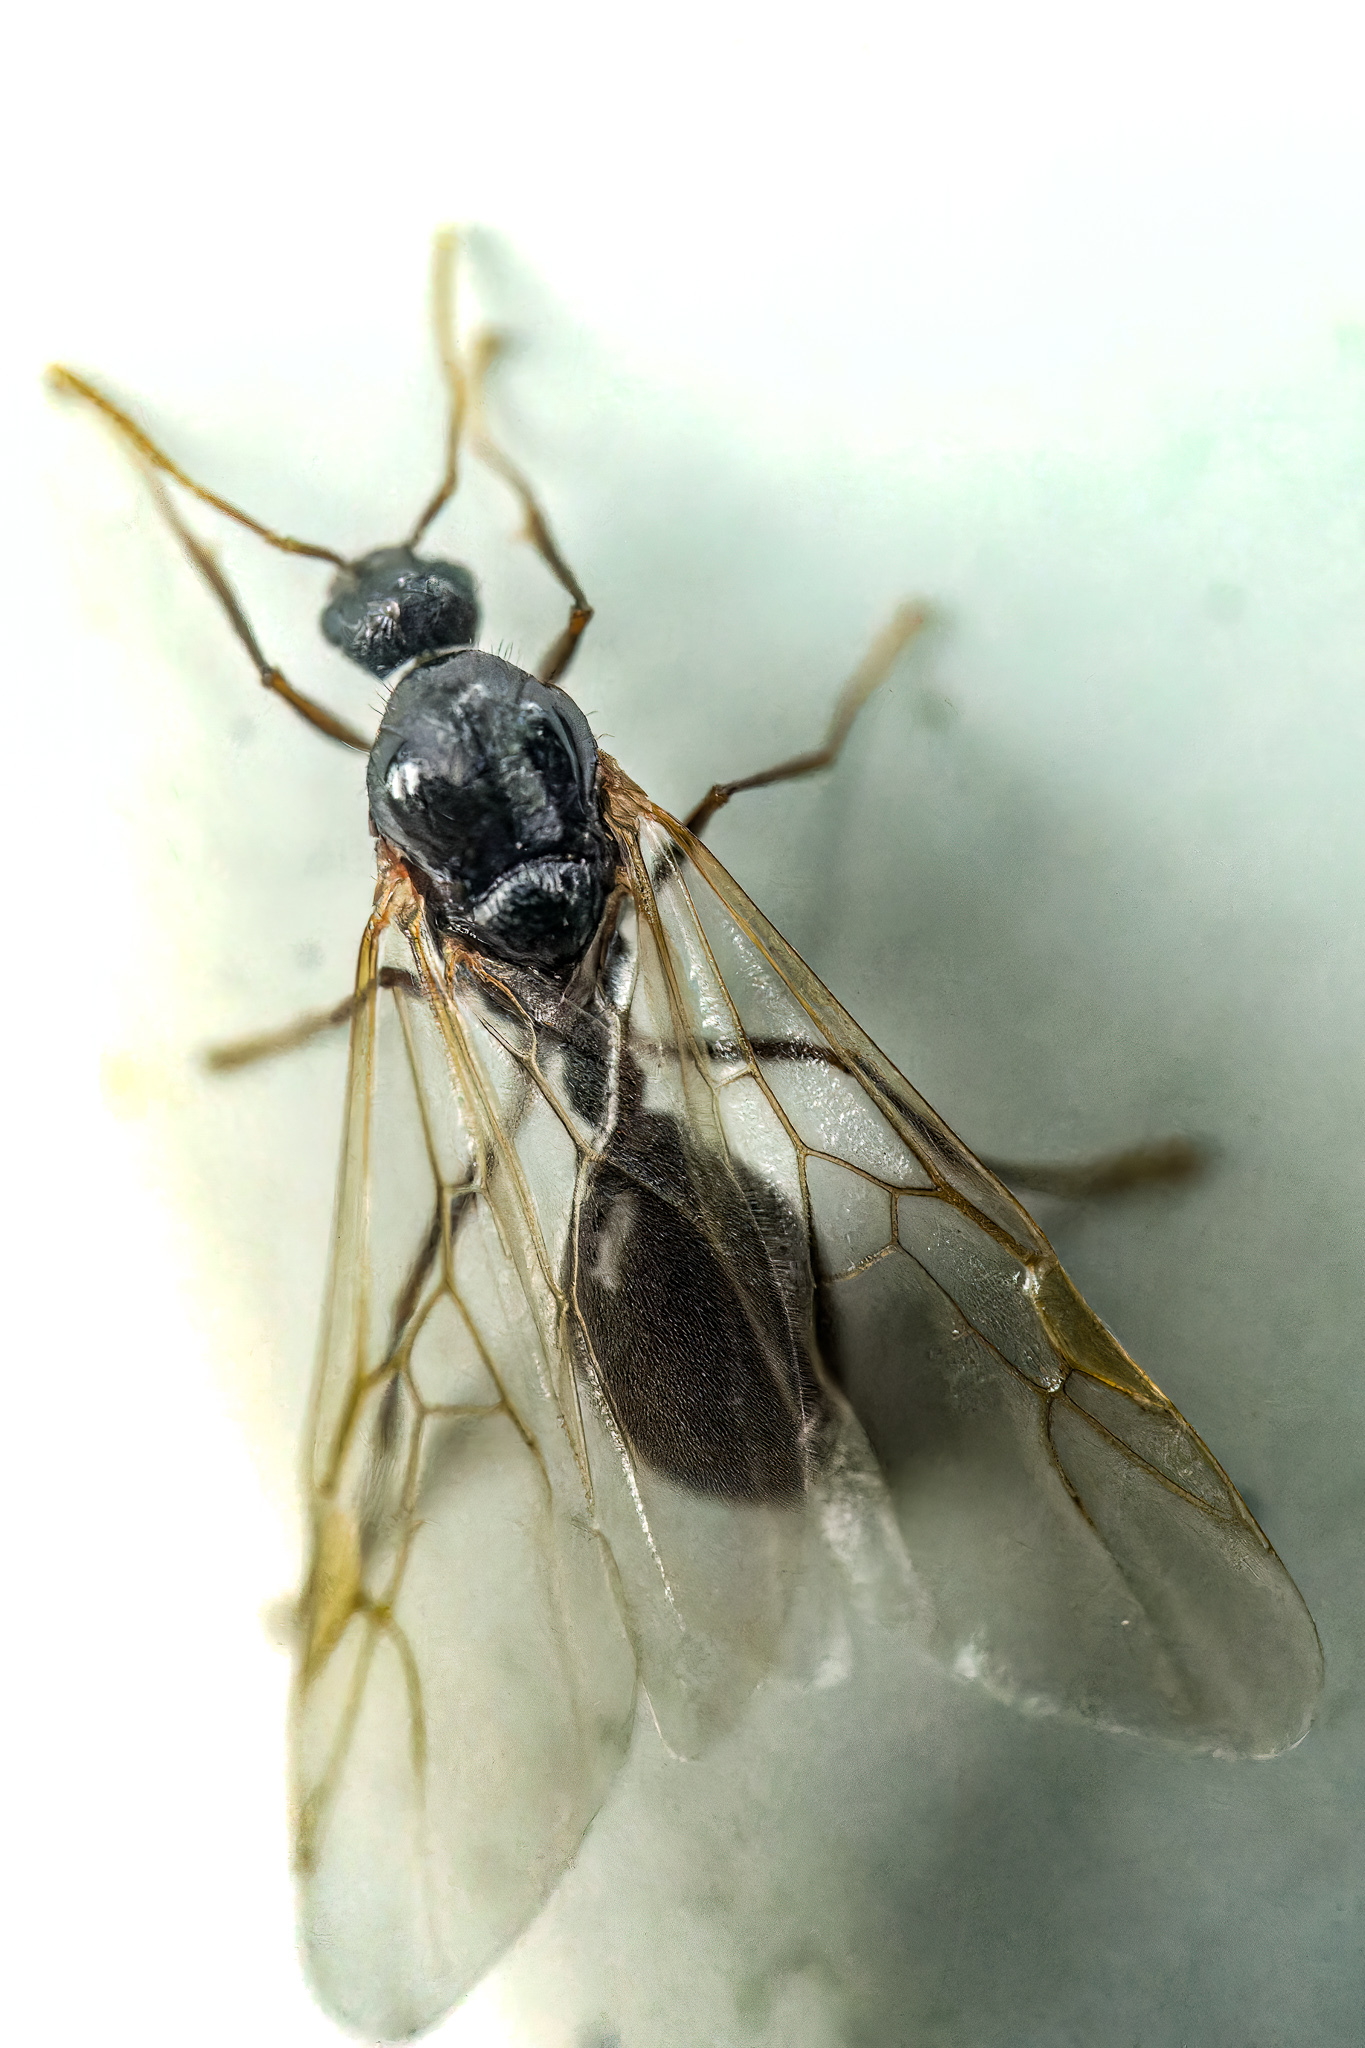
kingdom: Animalia
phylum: Arthropoda
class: Insecta
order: Hymenoptera
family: Formicidae
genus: Tetramorium
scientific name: Tetramorium immigrans
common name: Pavement ant
